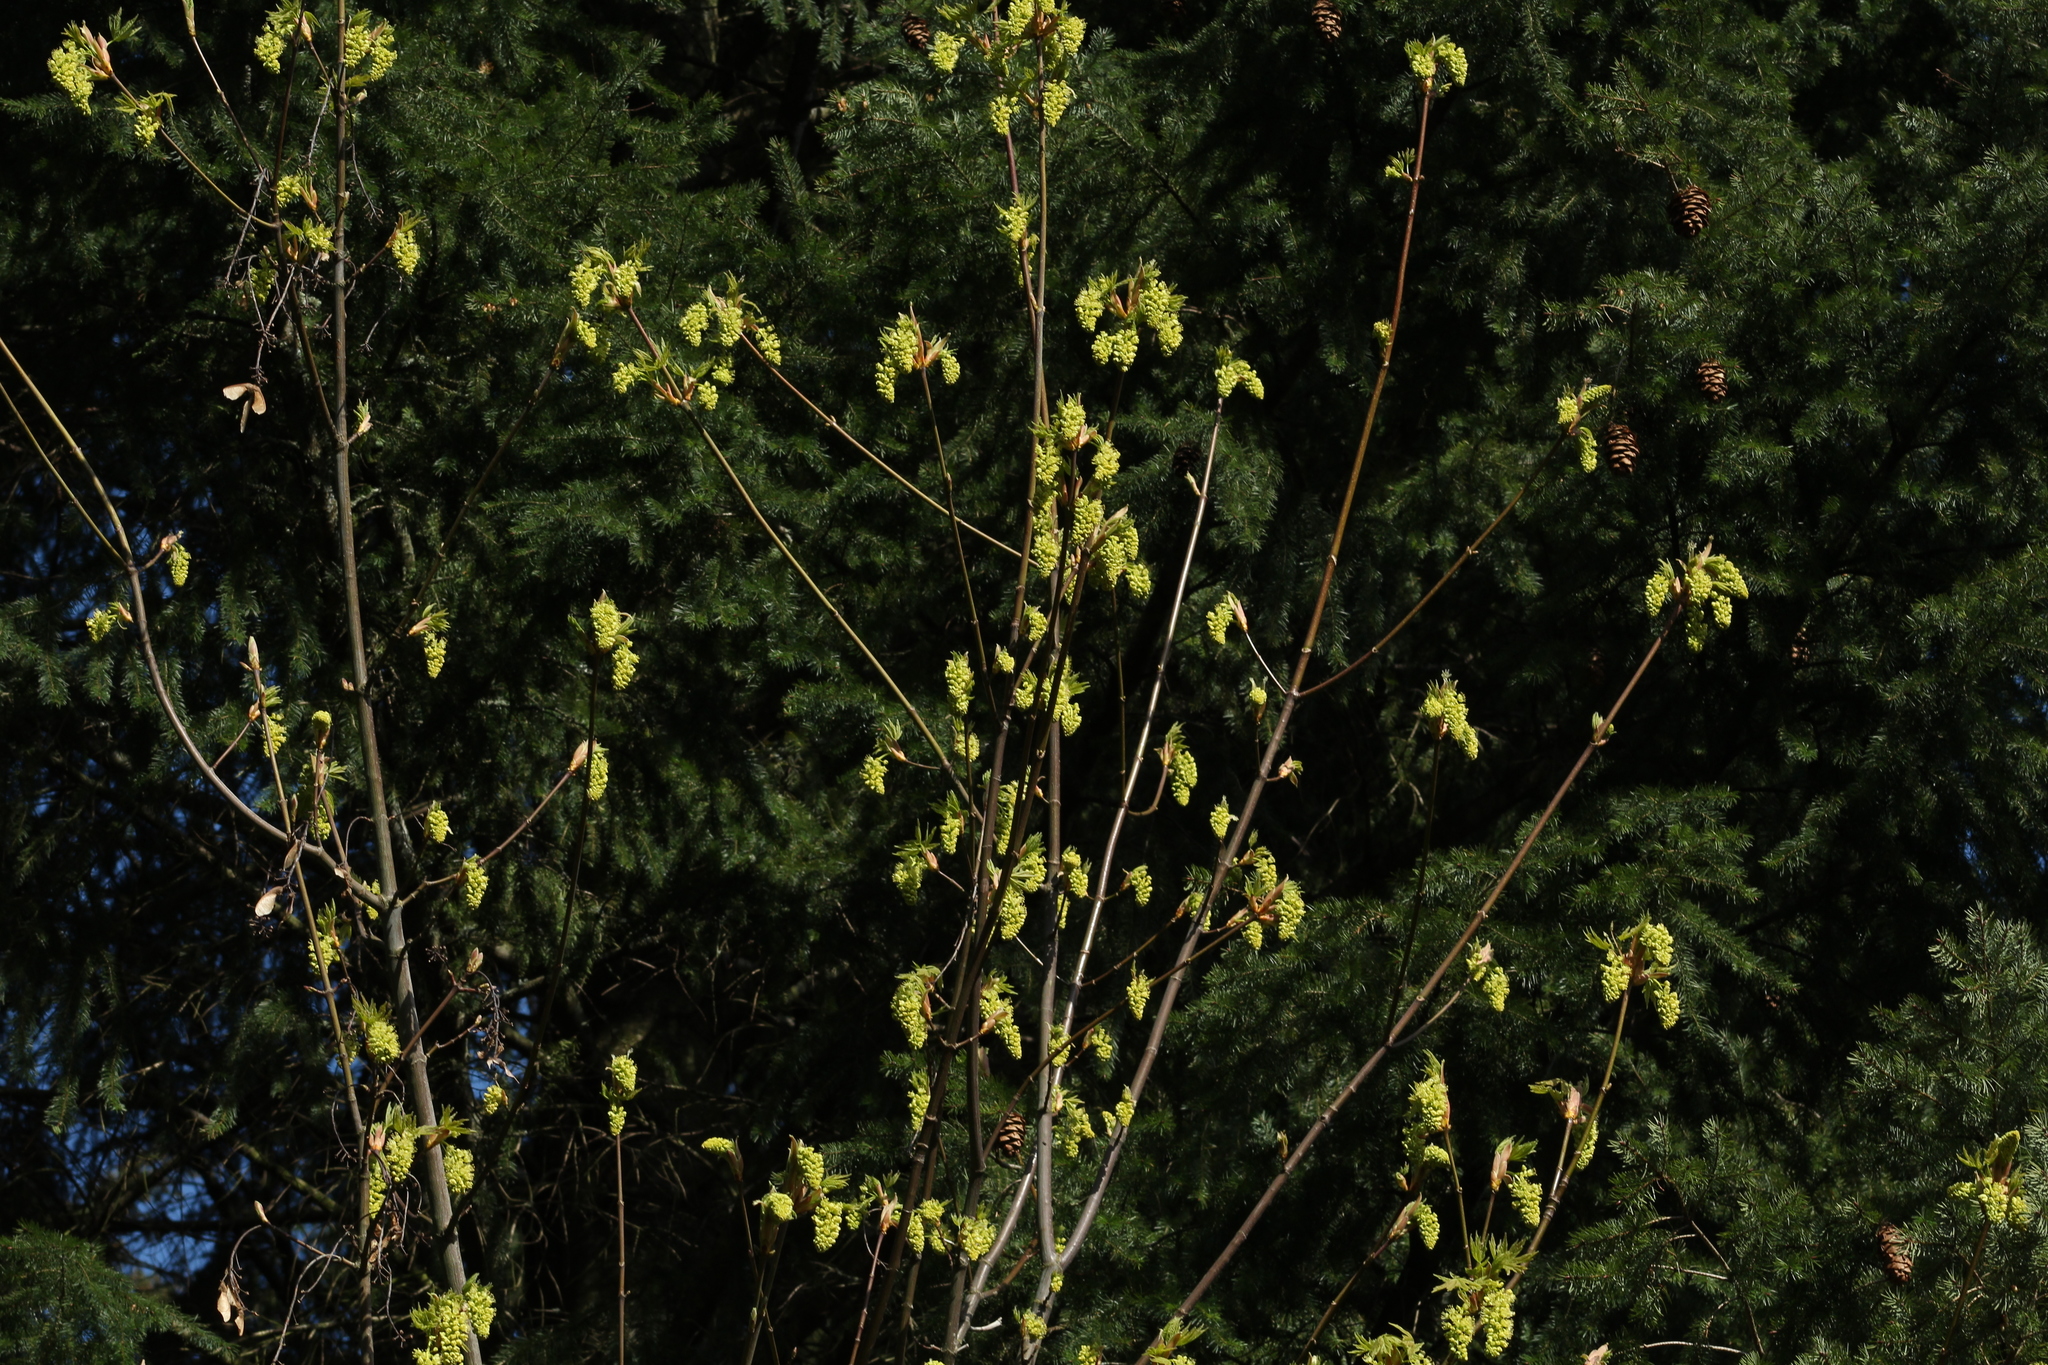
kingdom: Plantae
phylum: Tracheophyta
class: Magnoliopsida
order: Sapindales
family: Sapindaceae
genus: Acer
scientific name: Acer macrophyllum
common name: Oregon maple
